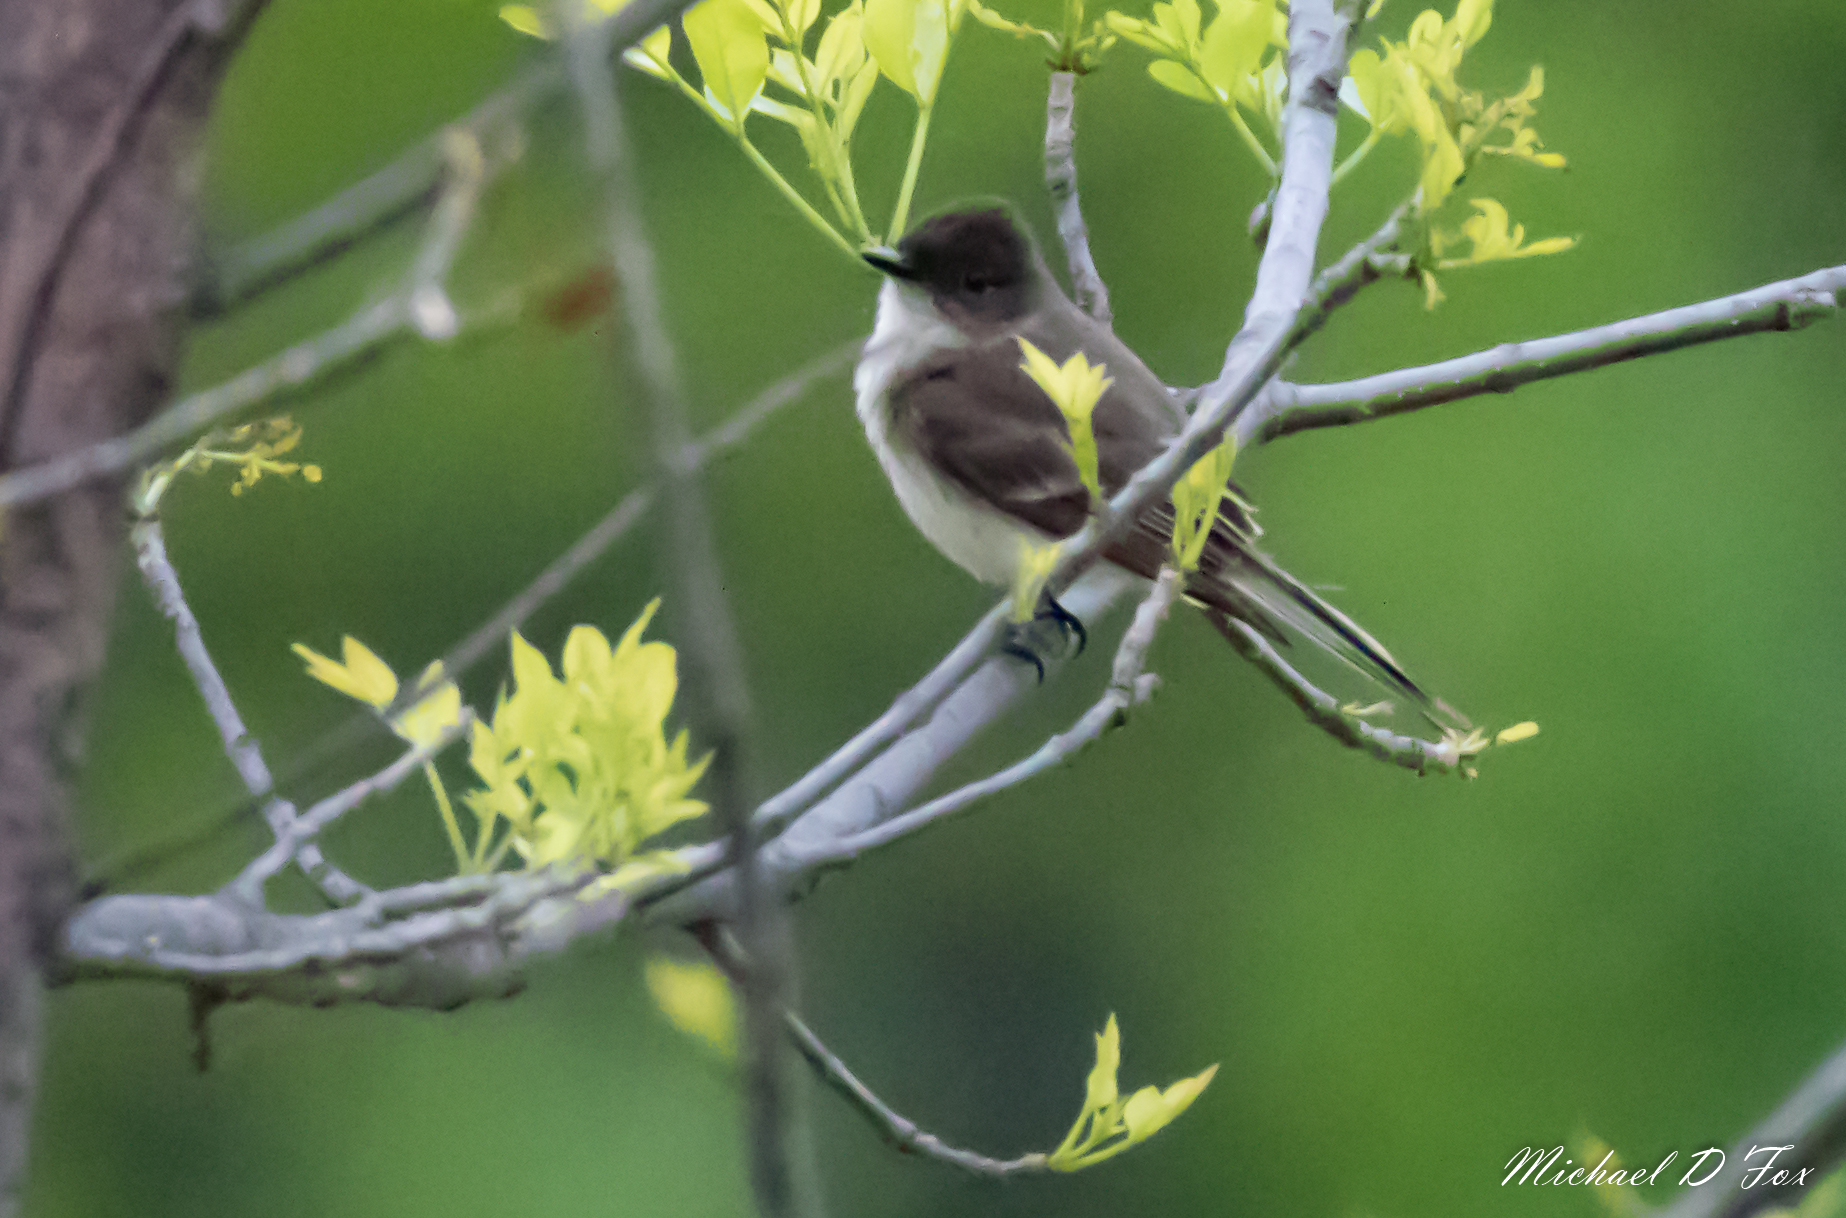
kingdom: Animalia
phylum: Chordata
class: Aves
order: Passeriformes
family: Tyrannidae
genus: Sayornis
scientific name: Sayornis phoebe
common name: Eastern phoebe
